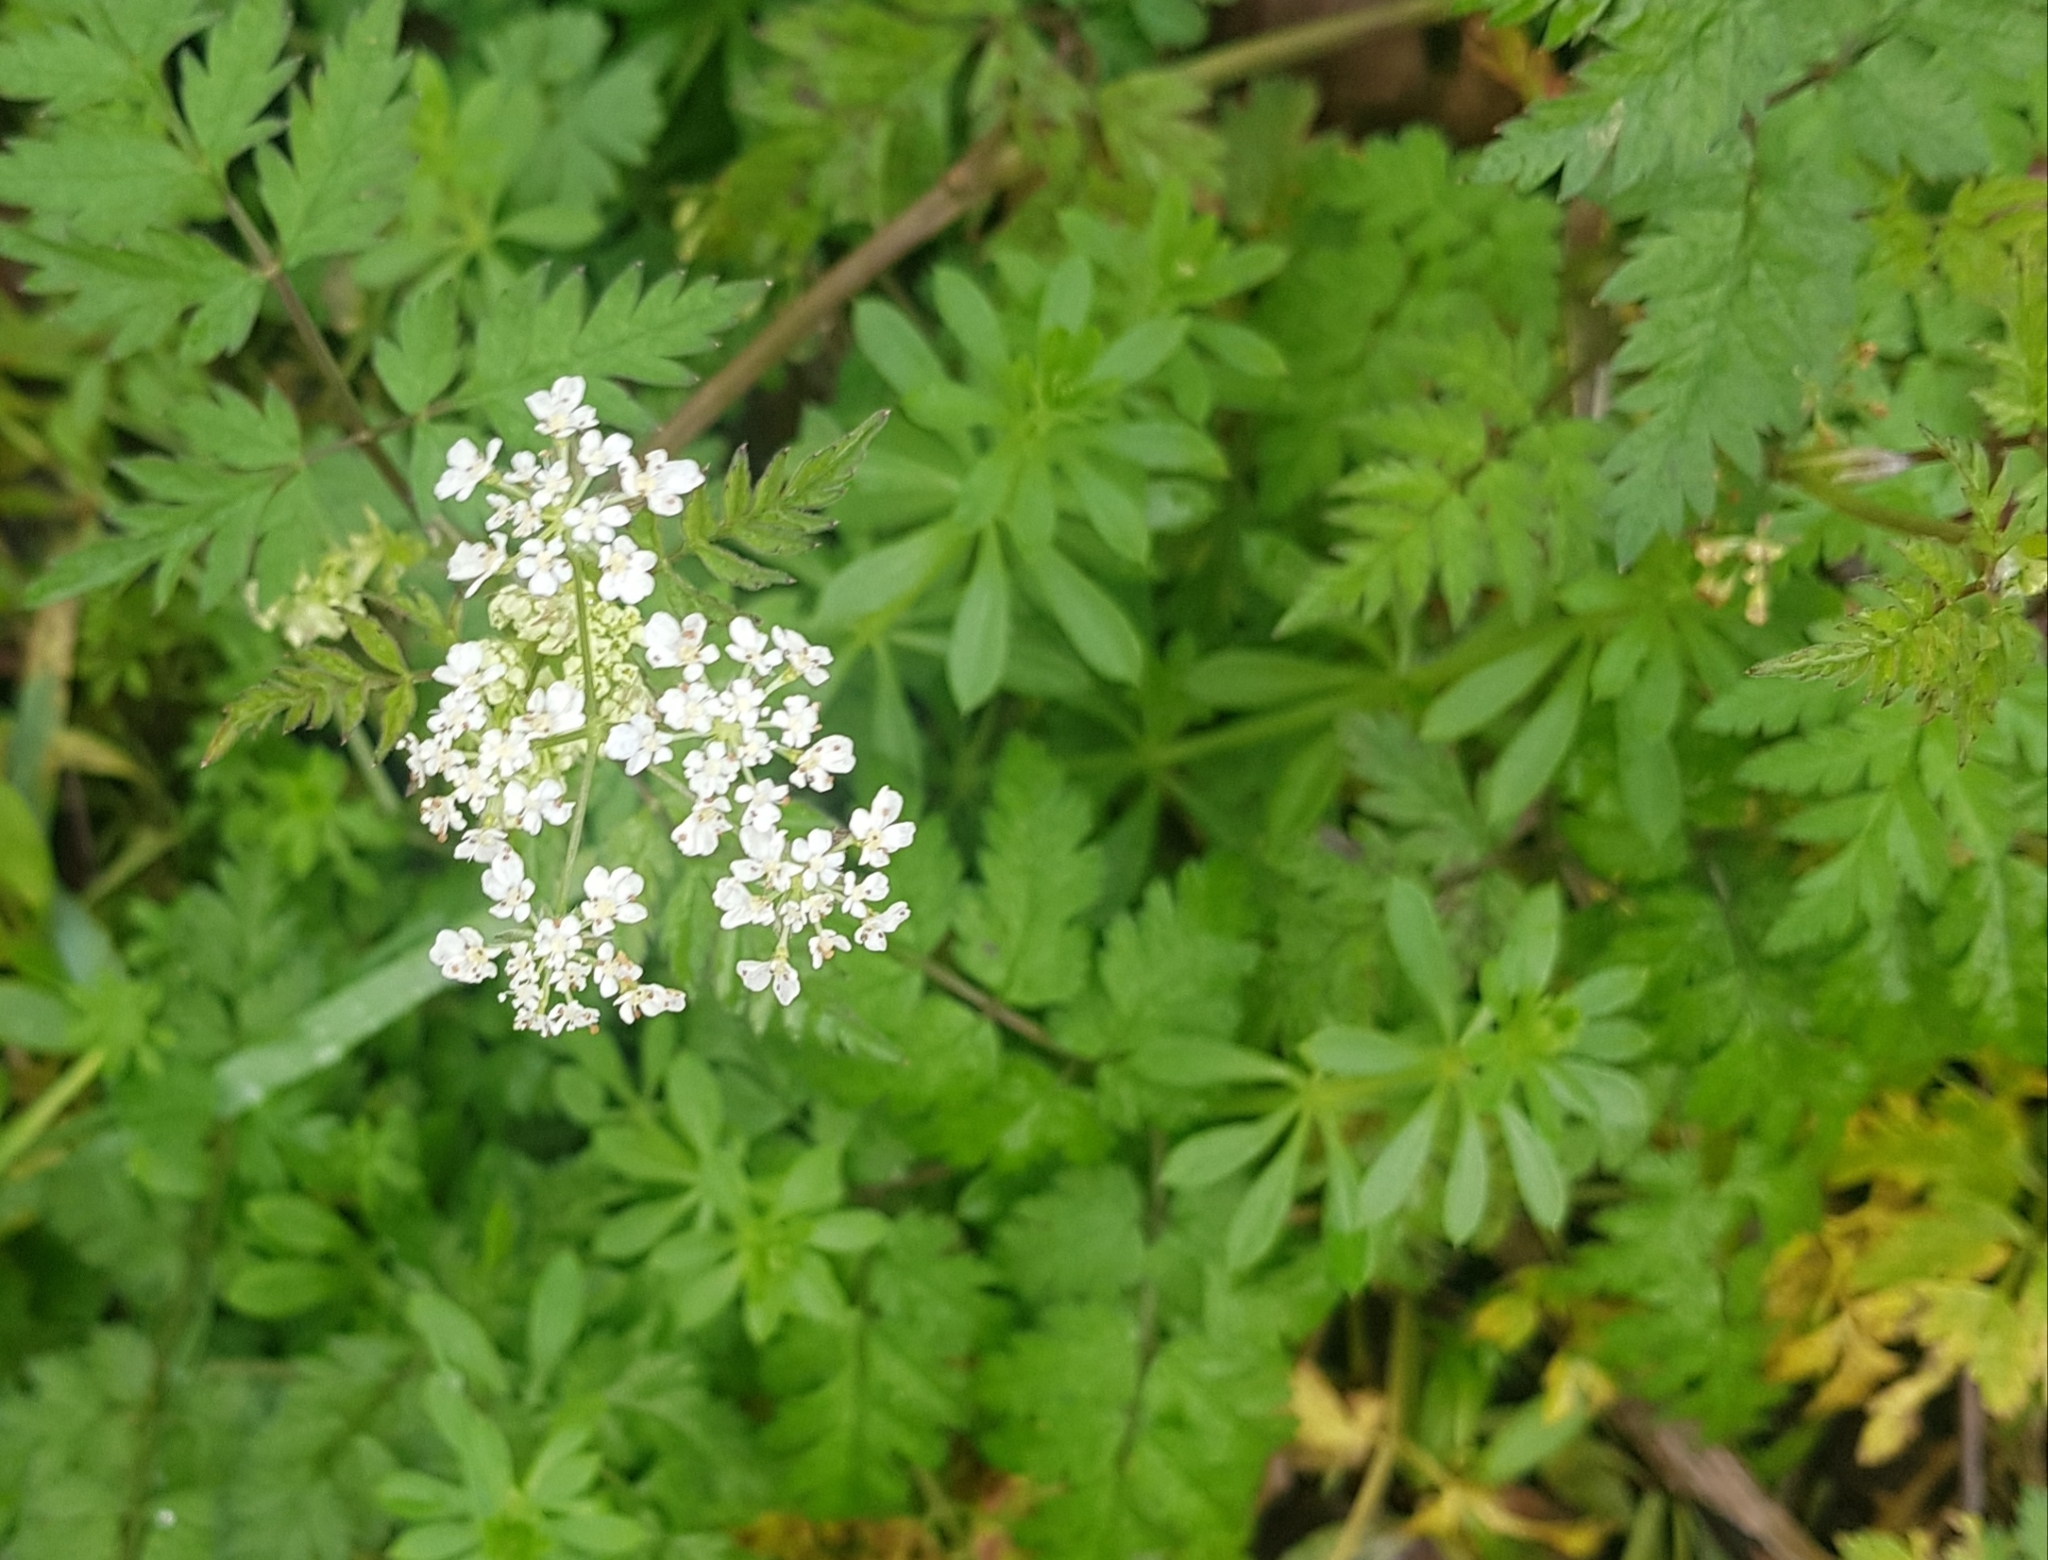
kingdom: Plantae
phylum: Tracheophyta
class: Magnoliopsida
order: Apiales
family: Apiaceae
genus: Anthriscus
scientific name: Anthriscus sylvestris
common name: Cow parsley
